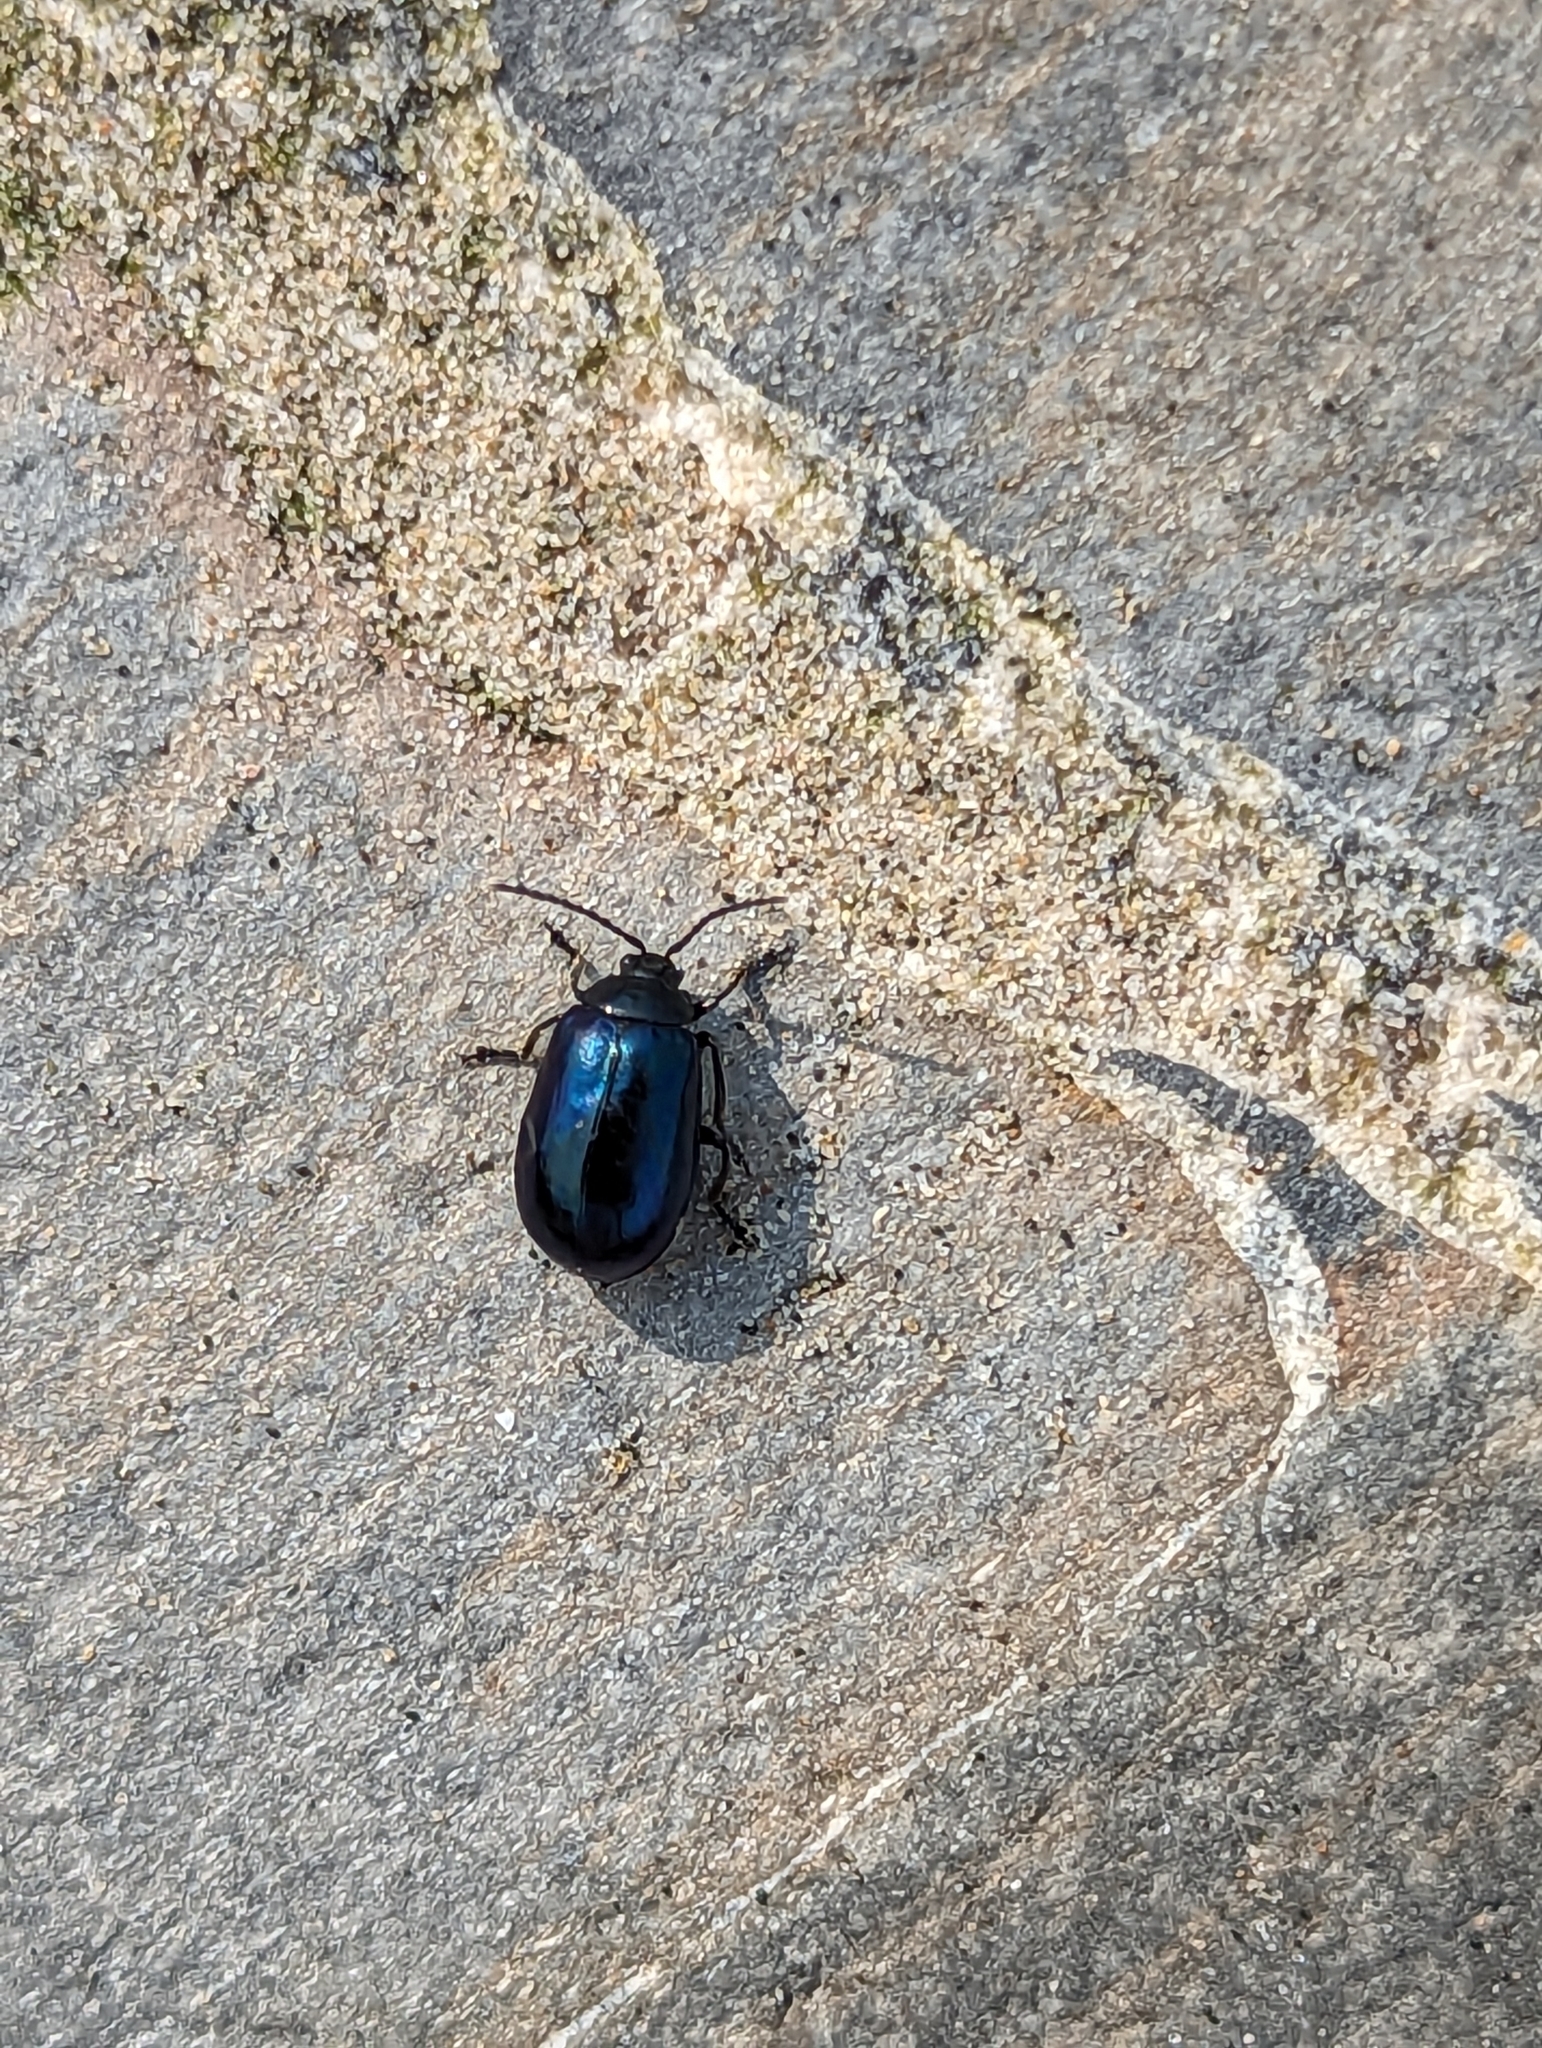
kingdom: Animalia
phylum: Arthropoda
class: Insecta
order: Coleoptera
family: Chrysomelidae
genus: Agelastica
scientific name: Agelastica alni
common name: Alder leaf beetle
